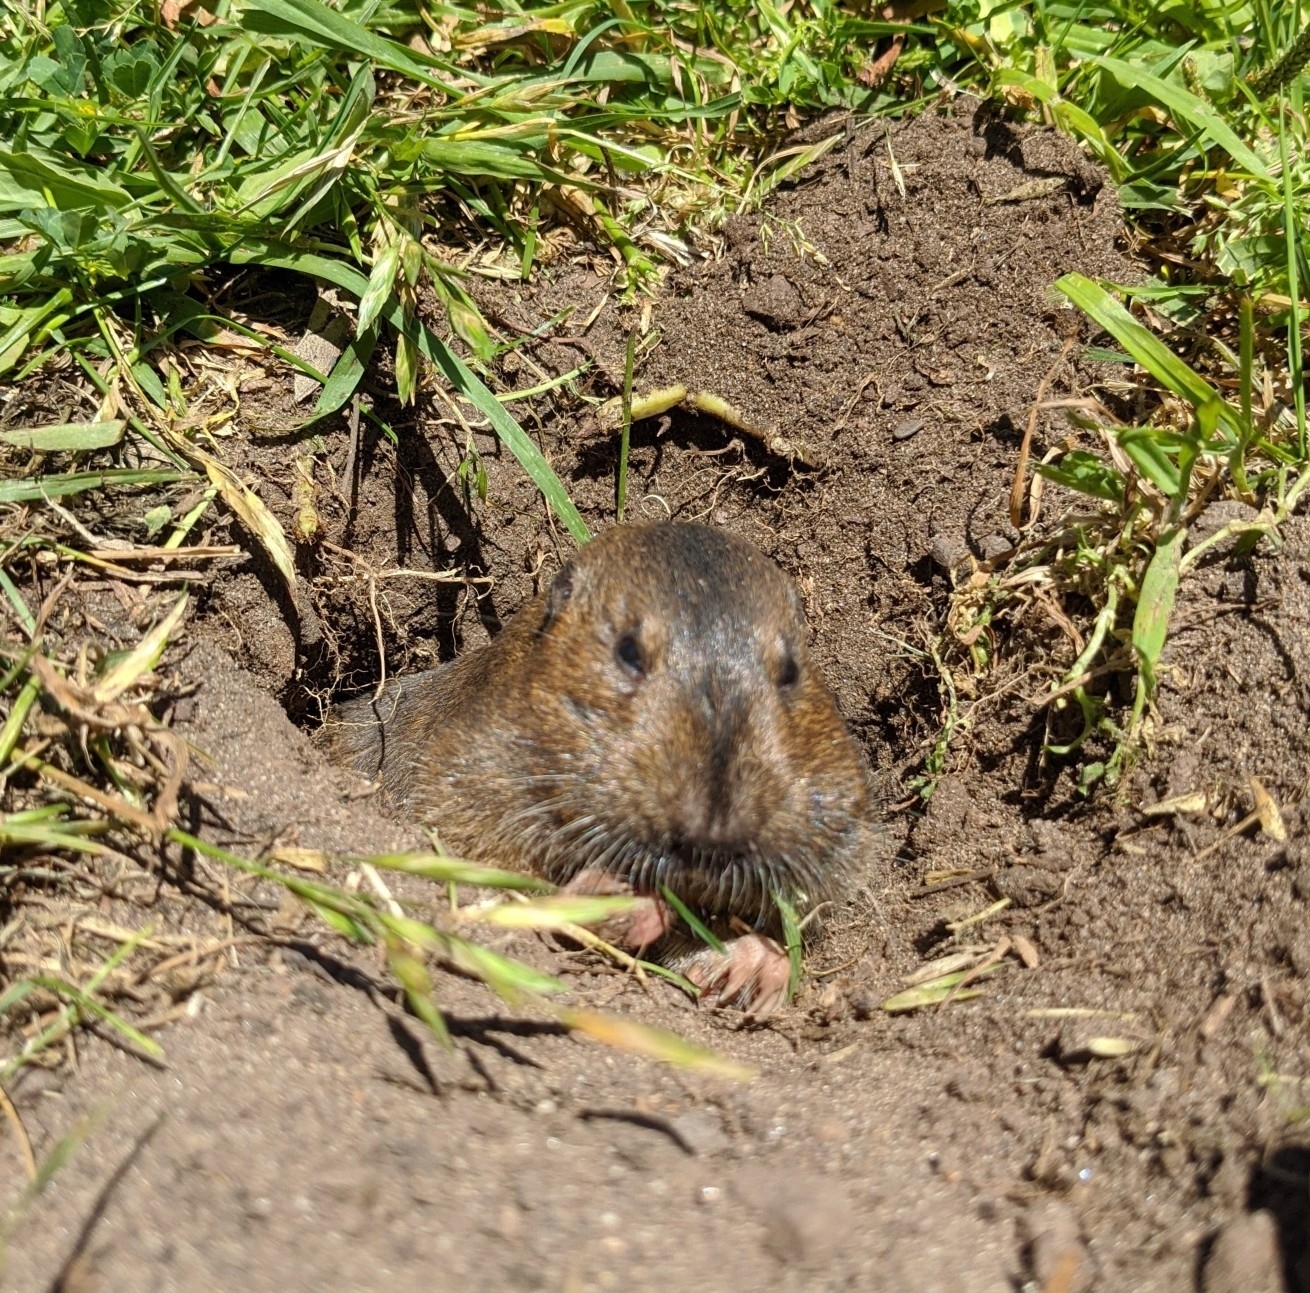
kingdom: Animalia
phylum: Chordata
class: Mammalia
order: Rodentia
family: Geomyidae
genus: Thomomys
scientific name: Thomomys bottae
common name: Botta's pocket gopher
